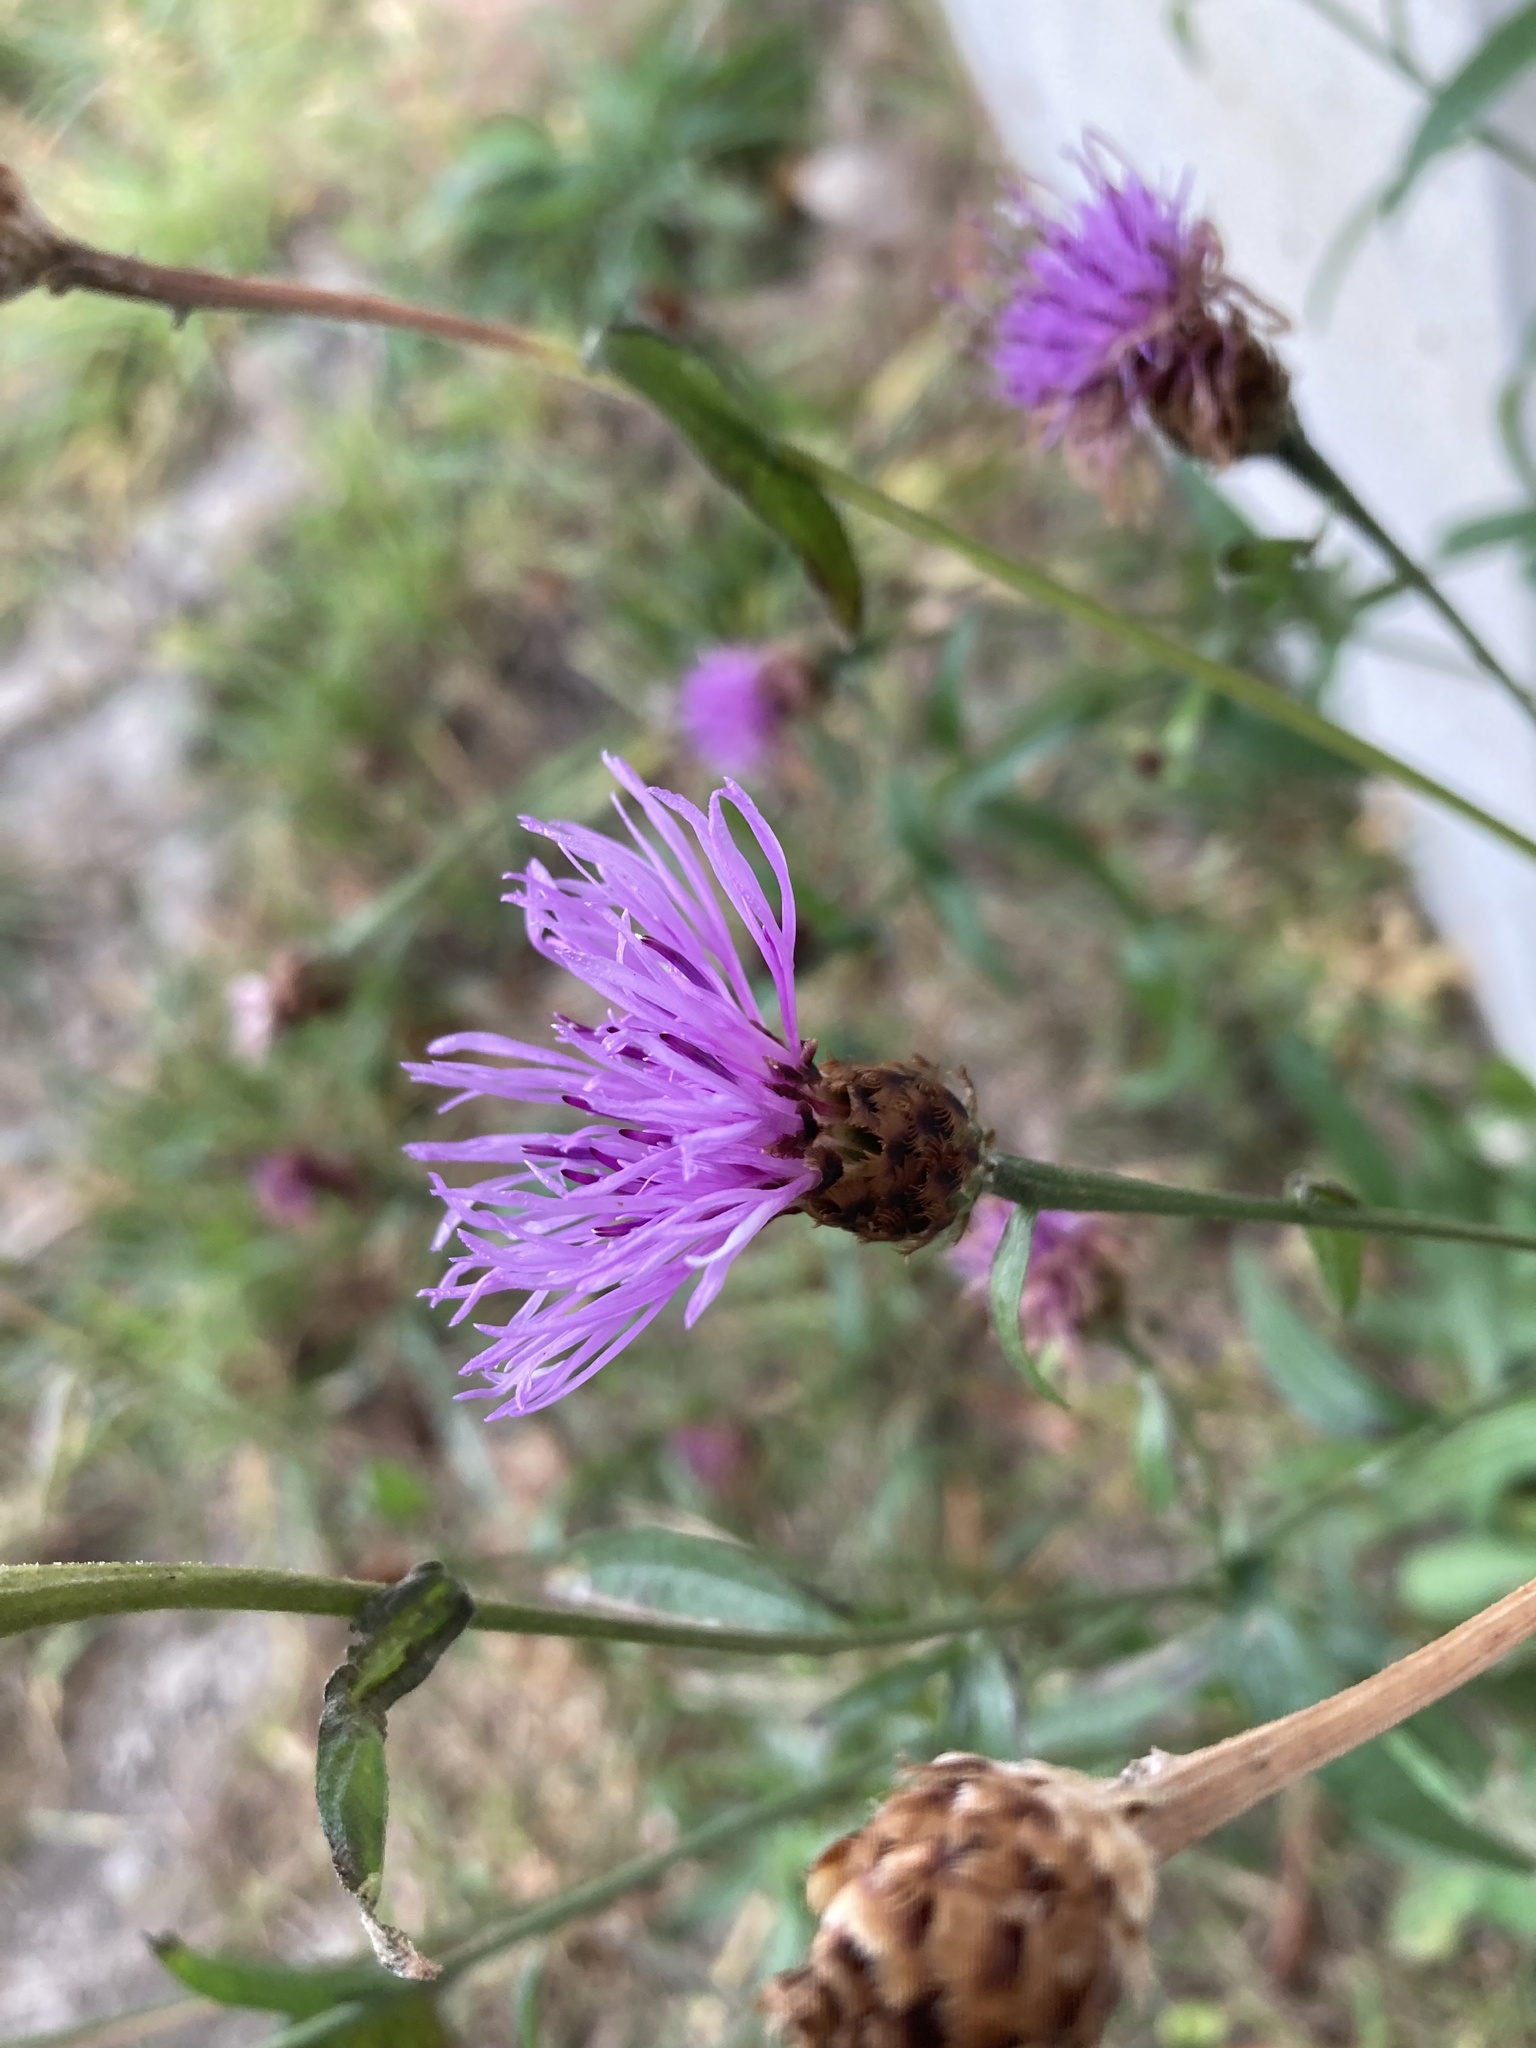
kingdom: Plantae
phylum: Tracheophyta
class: Magnoliopsida
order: Asterales
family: Asteraceae
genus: Centaurea
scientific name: Centaurea jacea
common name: Brown knapweed
